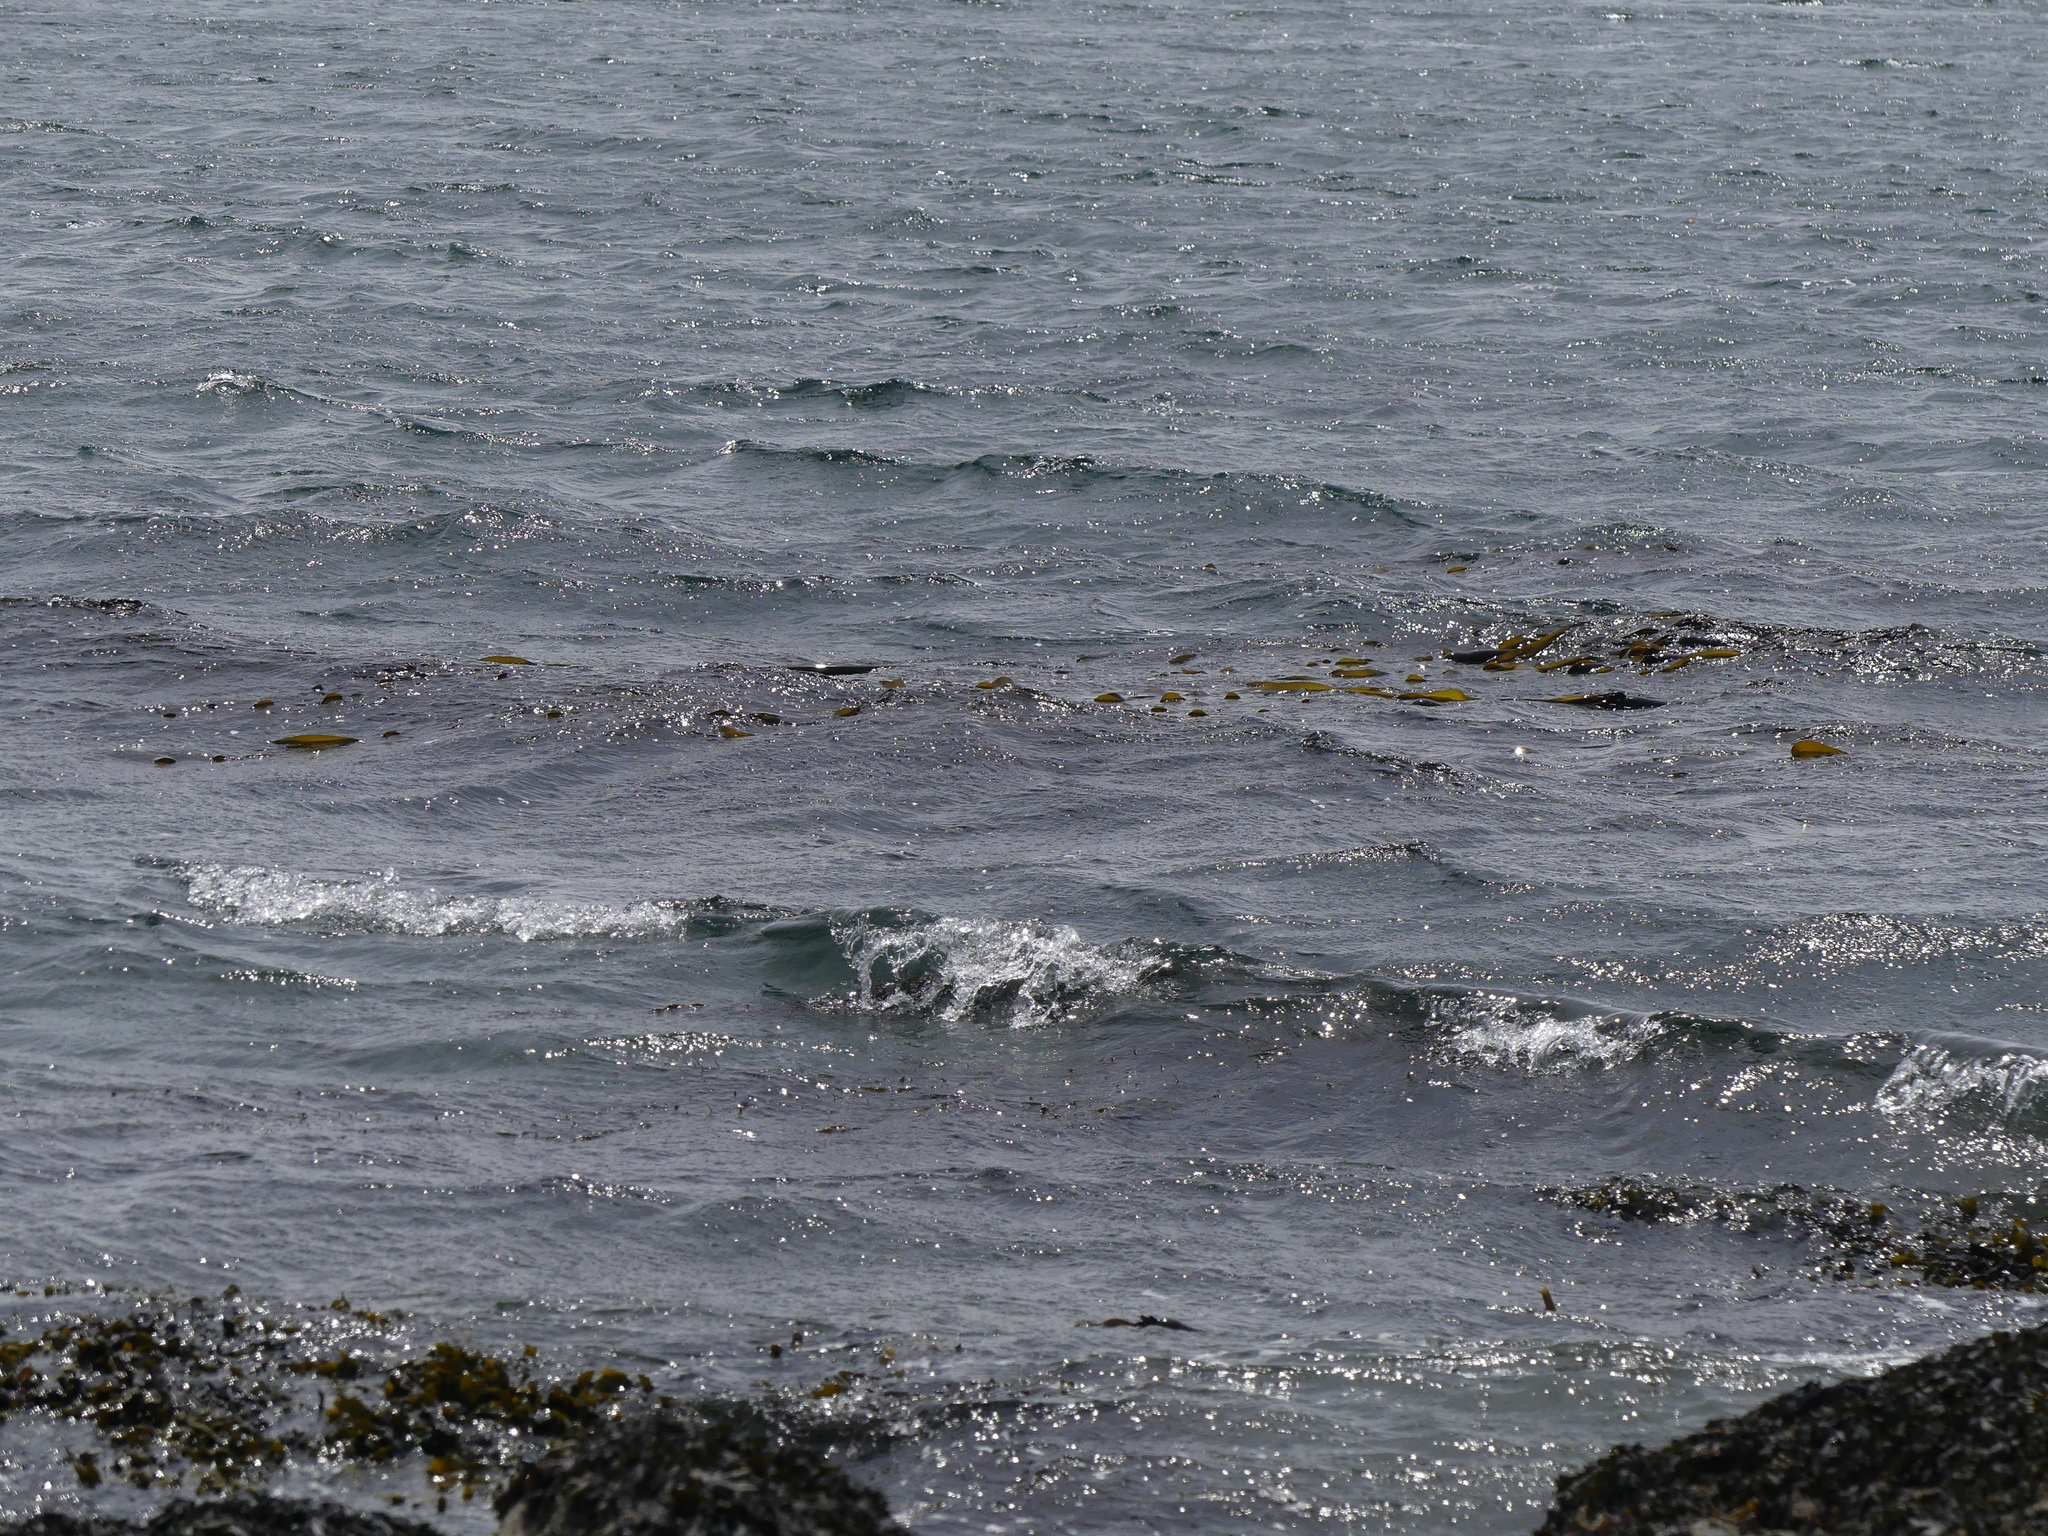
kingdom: Chromista
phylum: Ochrophyta
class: Phaeophyceae
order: Laminariales
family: Laminariaceae
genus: Nereocystis
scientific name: Nereocystis luetkeana
